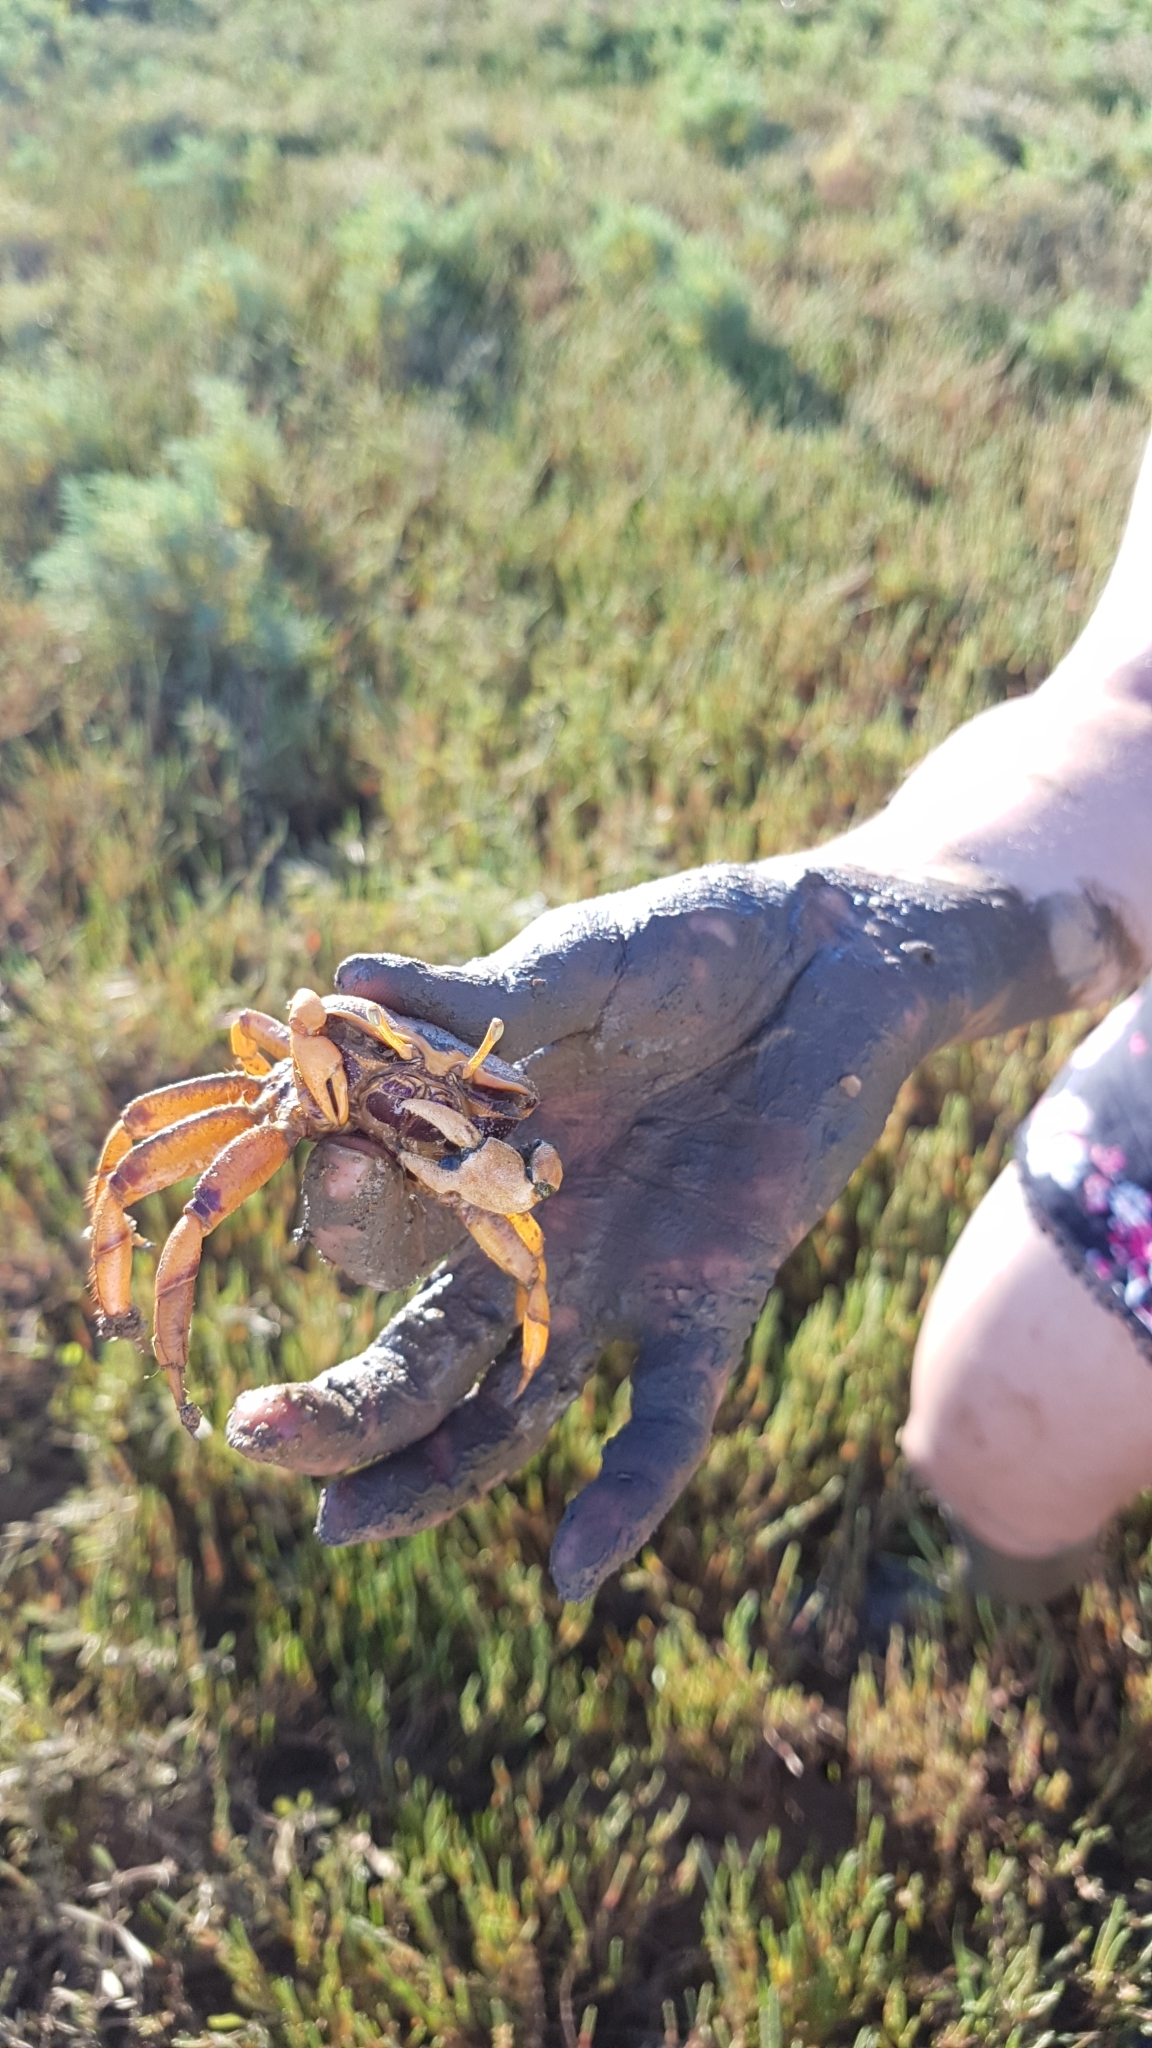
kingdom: Animalia
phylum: Arthropoda
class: Malacostraca
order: Decapoda
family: Ocypodidae
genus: Afruca
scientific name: Afruca tangeri
